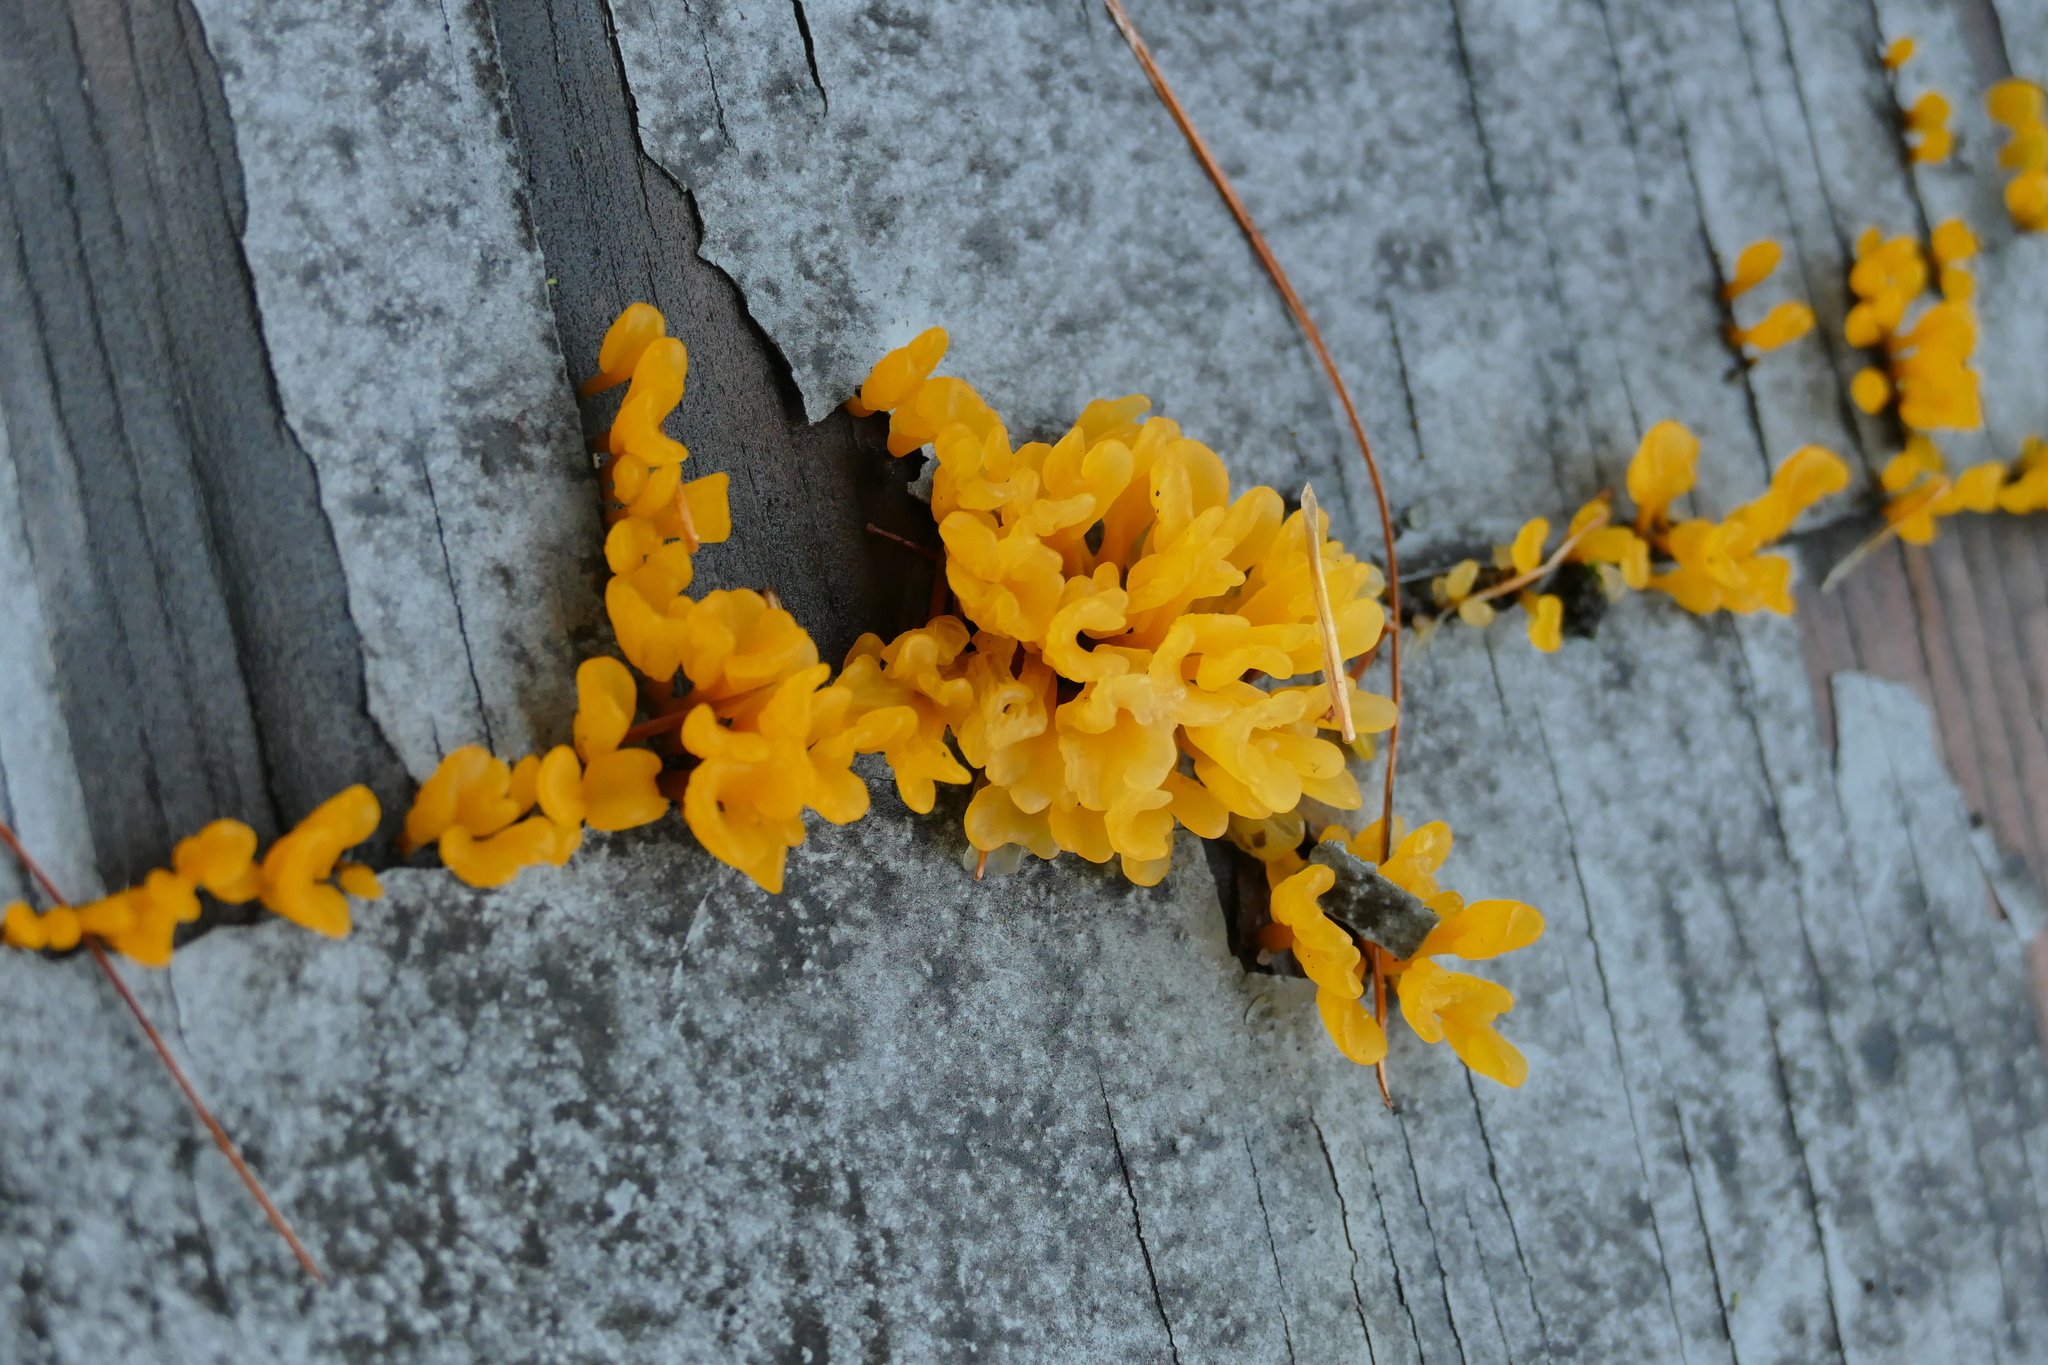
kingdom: Fungi
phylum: Basidiomycota
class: Dacrymycetes
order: Dacrymycetales
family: Dacrymycetaceae
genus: Dacrymyces
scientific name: Dacrymyces spathularius
